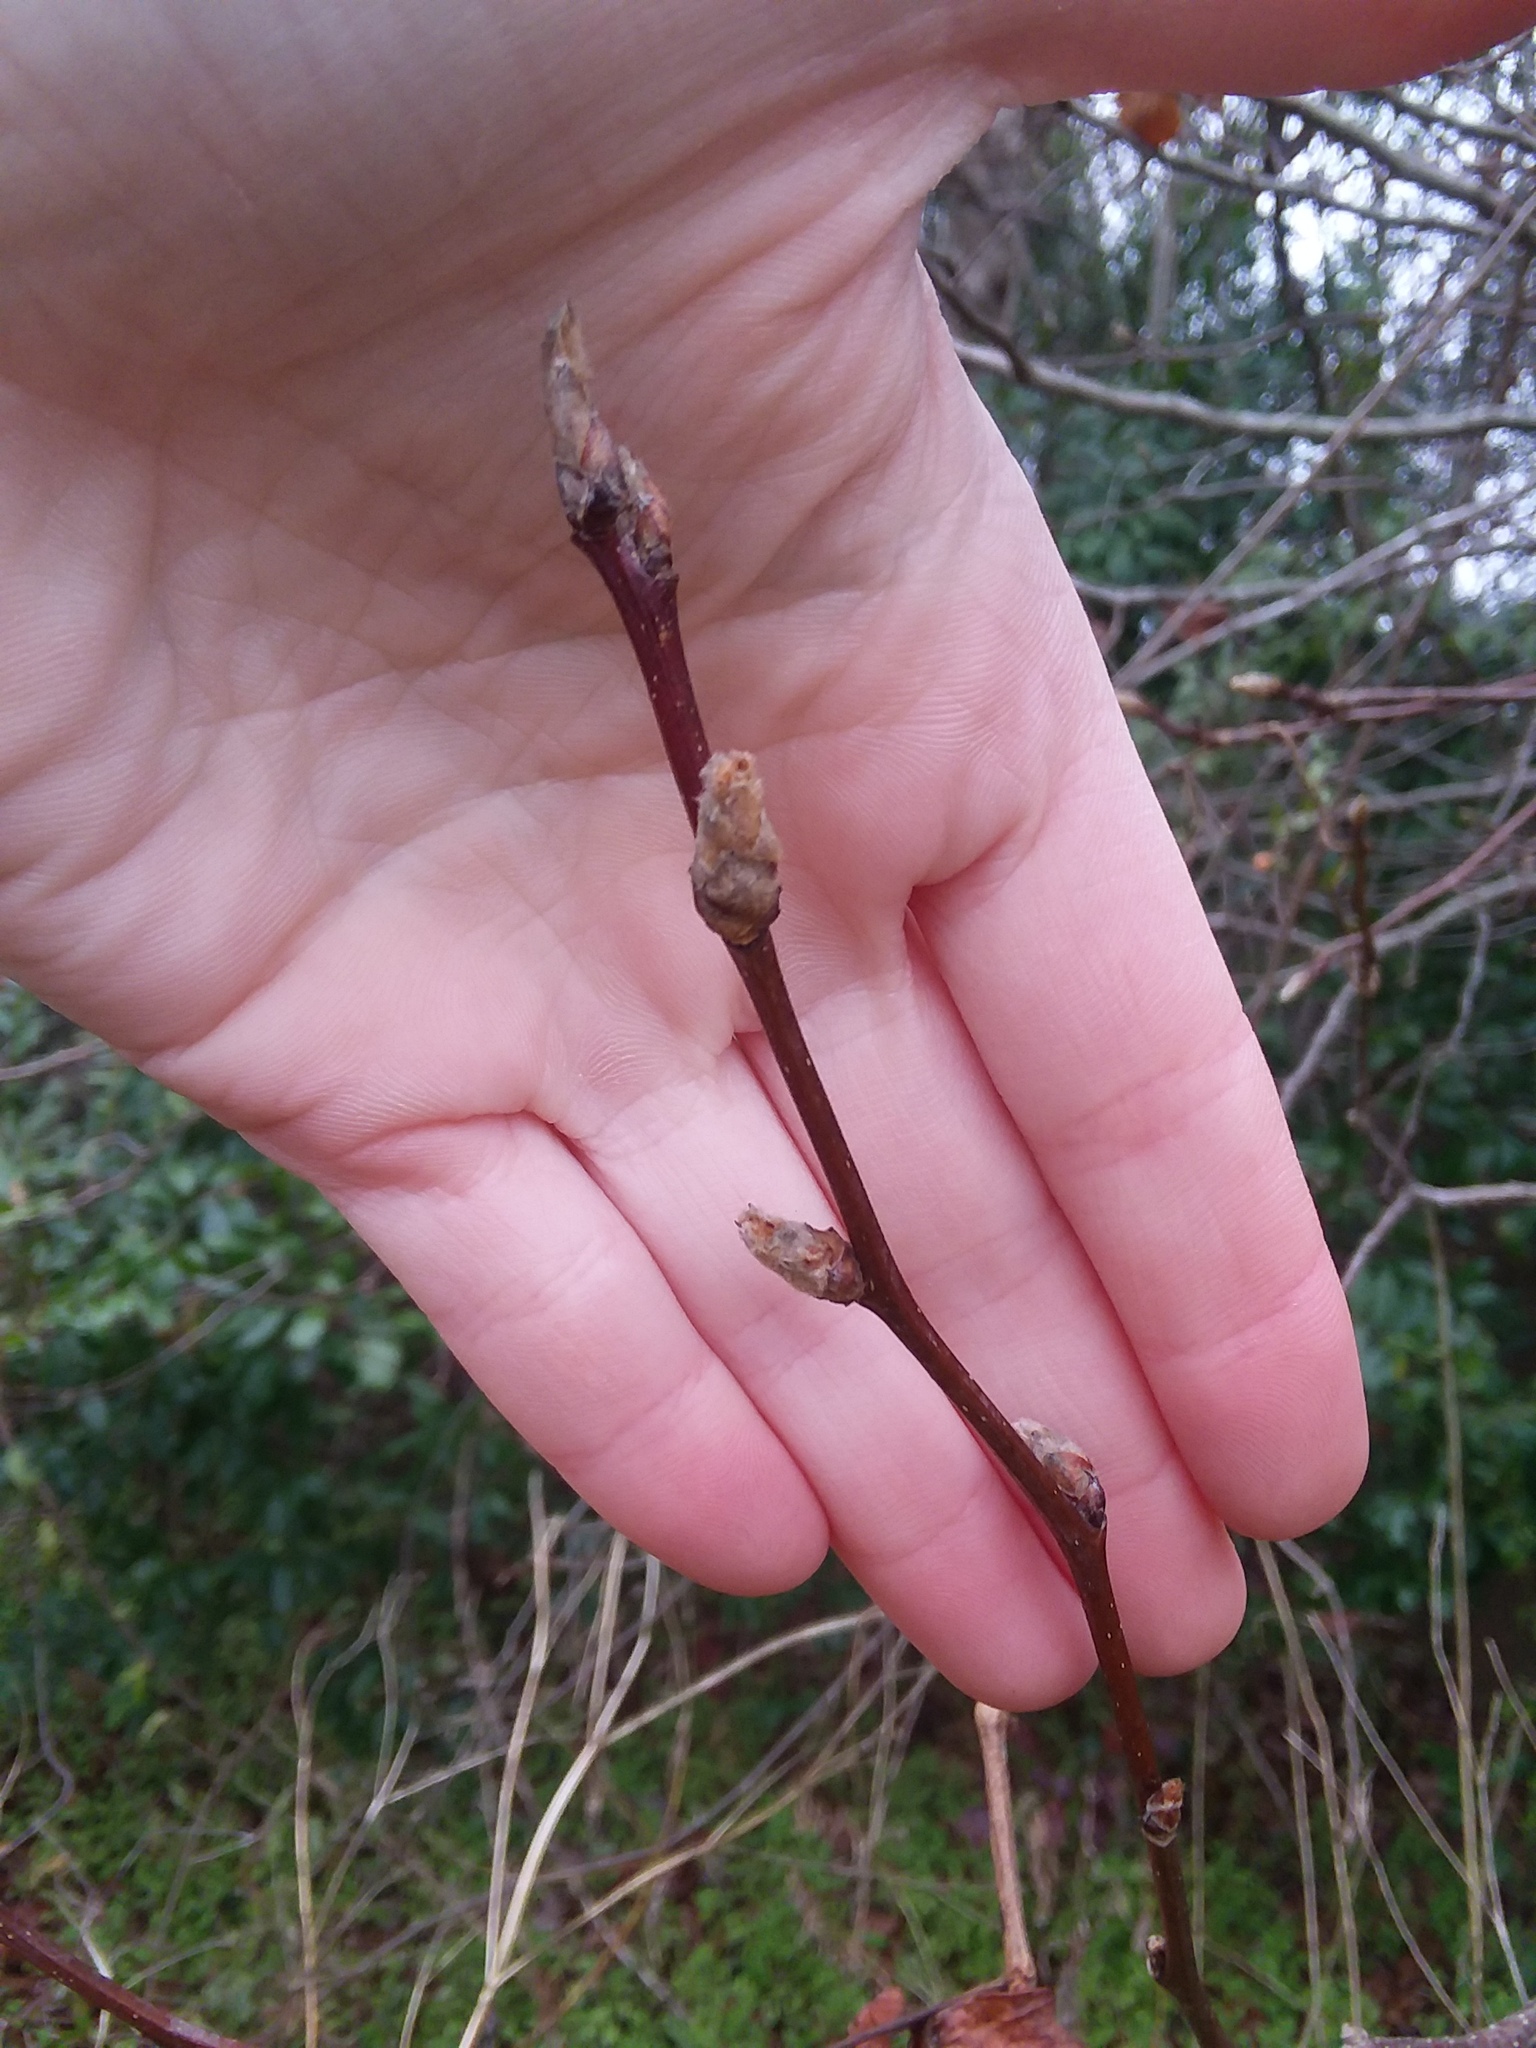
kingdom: Plantae
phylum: Tracheophyta
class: Magnoliopsida
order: Rosales
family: Rosaceae
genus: Pyrus
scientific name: Pyrus calleryana
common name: Callery pear
